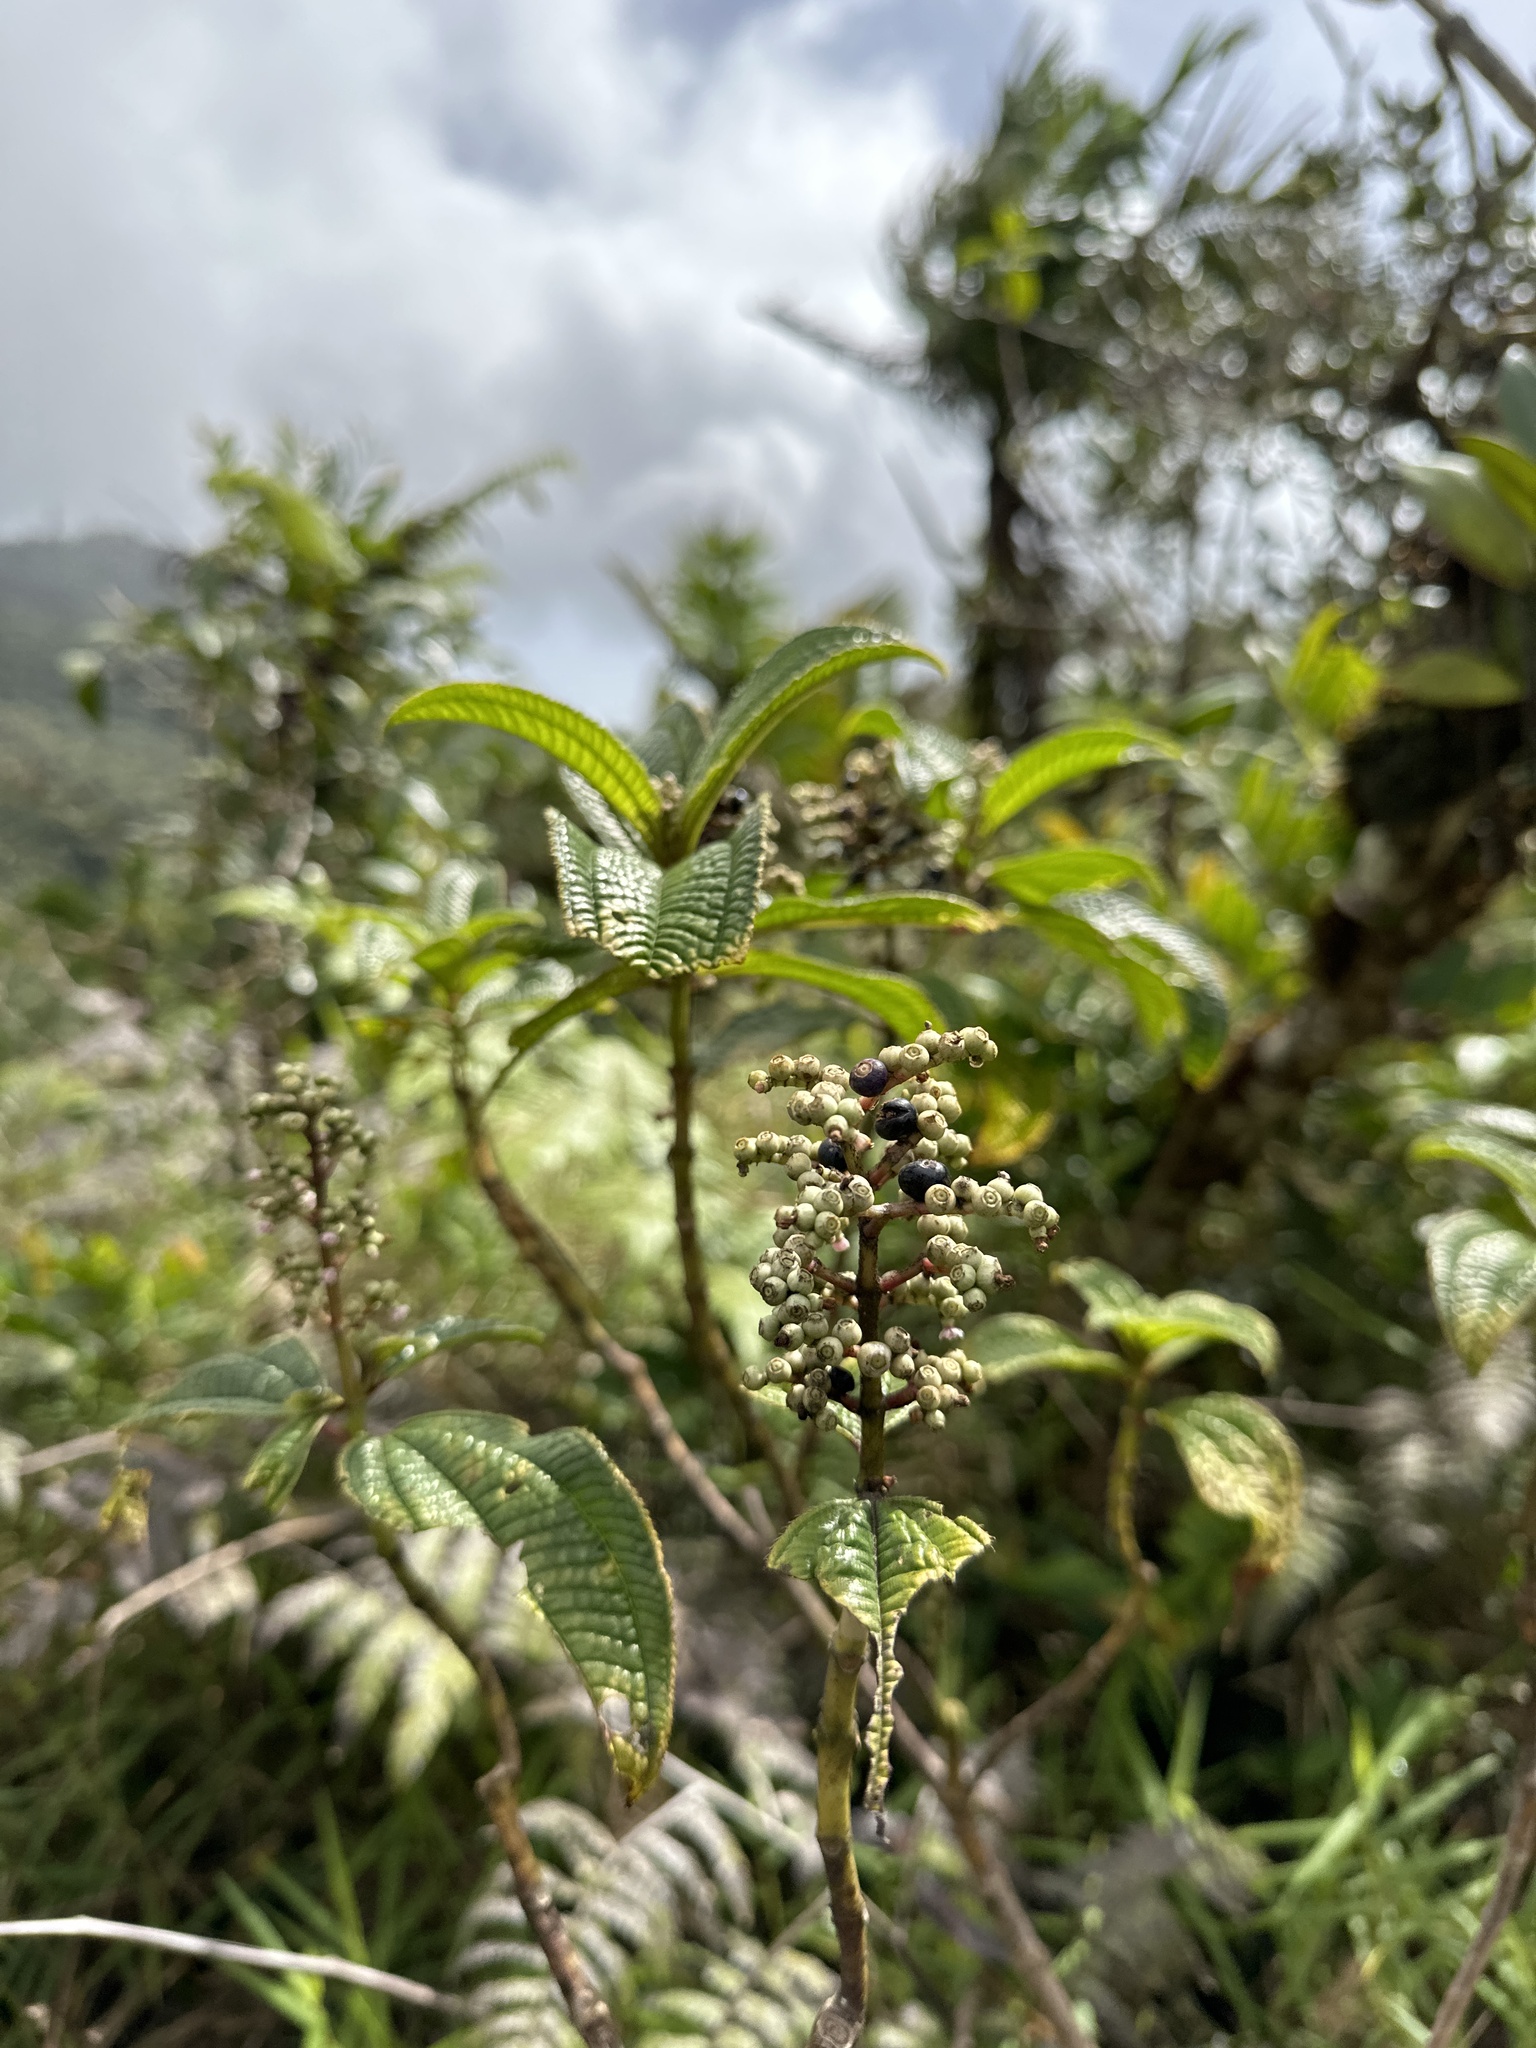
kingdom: Plantae
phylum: Tracheophyta
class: Magnoliopsida
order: Myrtales
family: Melastomataceae
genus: Miconia
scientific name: Miconia racemosa
